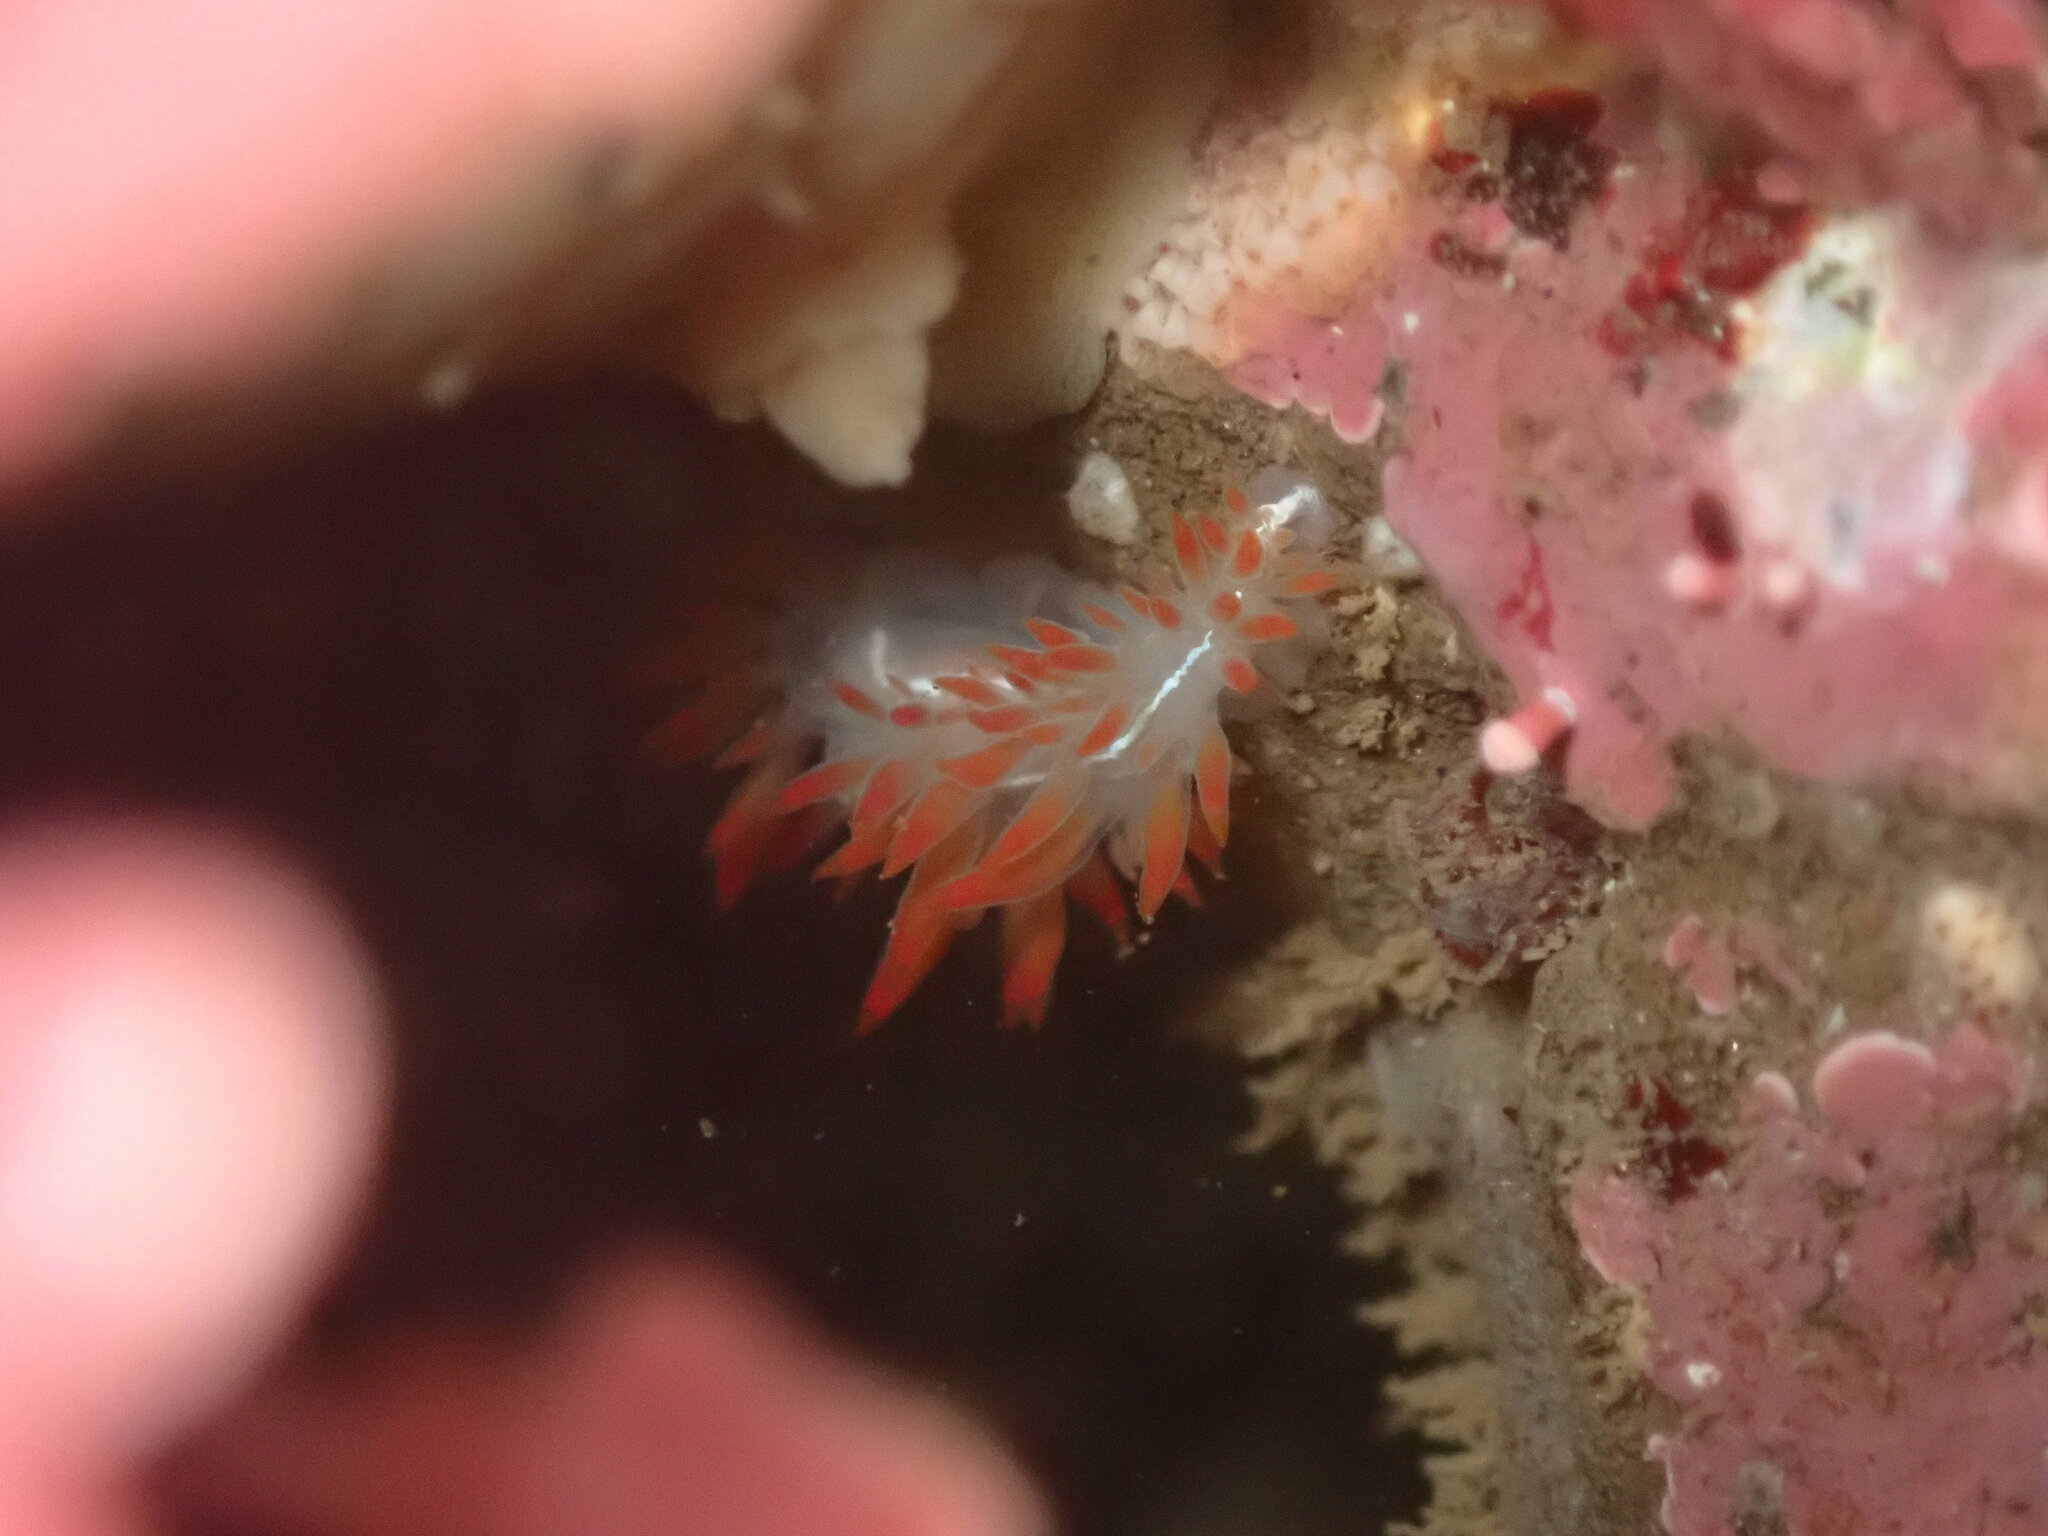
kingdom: Animalia
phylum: Mollusca
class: Gastropoda
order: Nudibranchia
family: Coryphellidae
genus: Coryphella
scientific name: Coryphella trilineata
